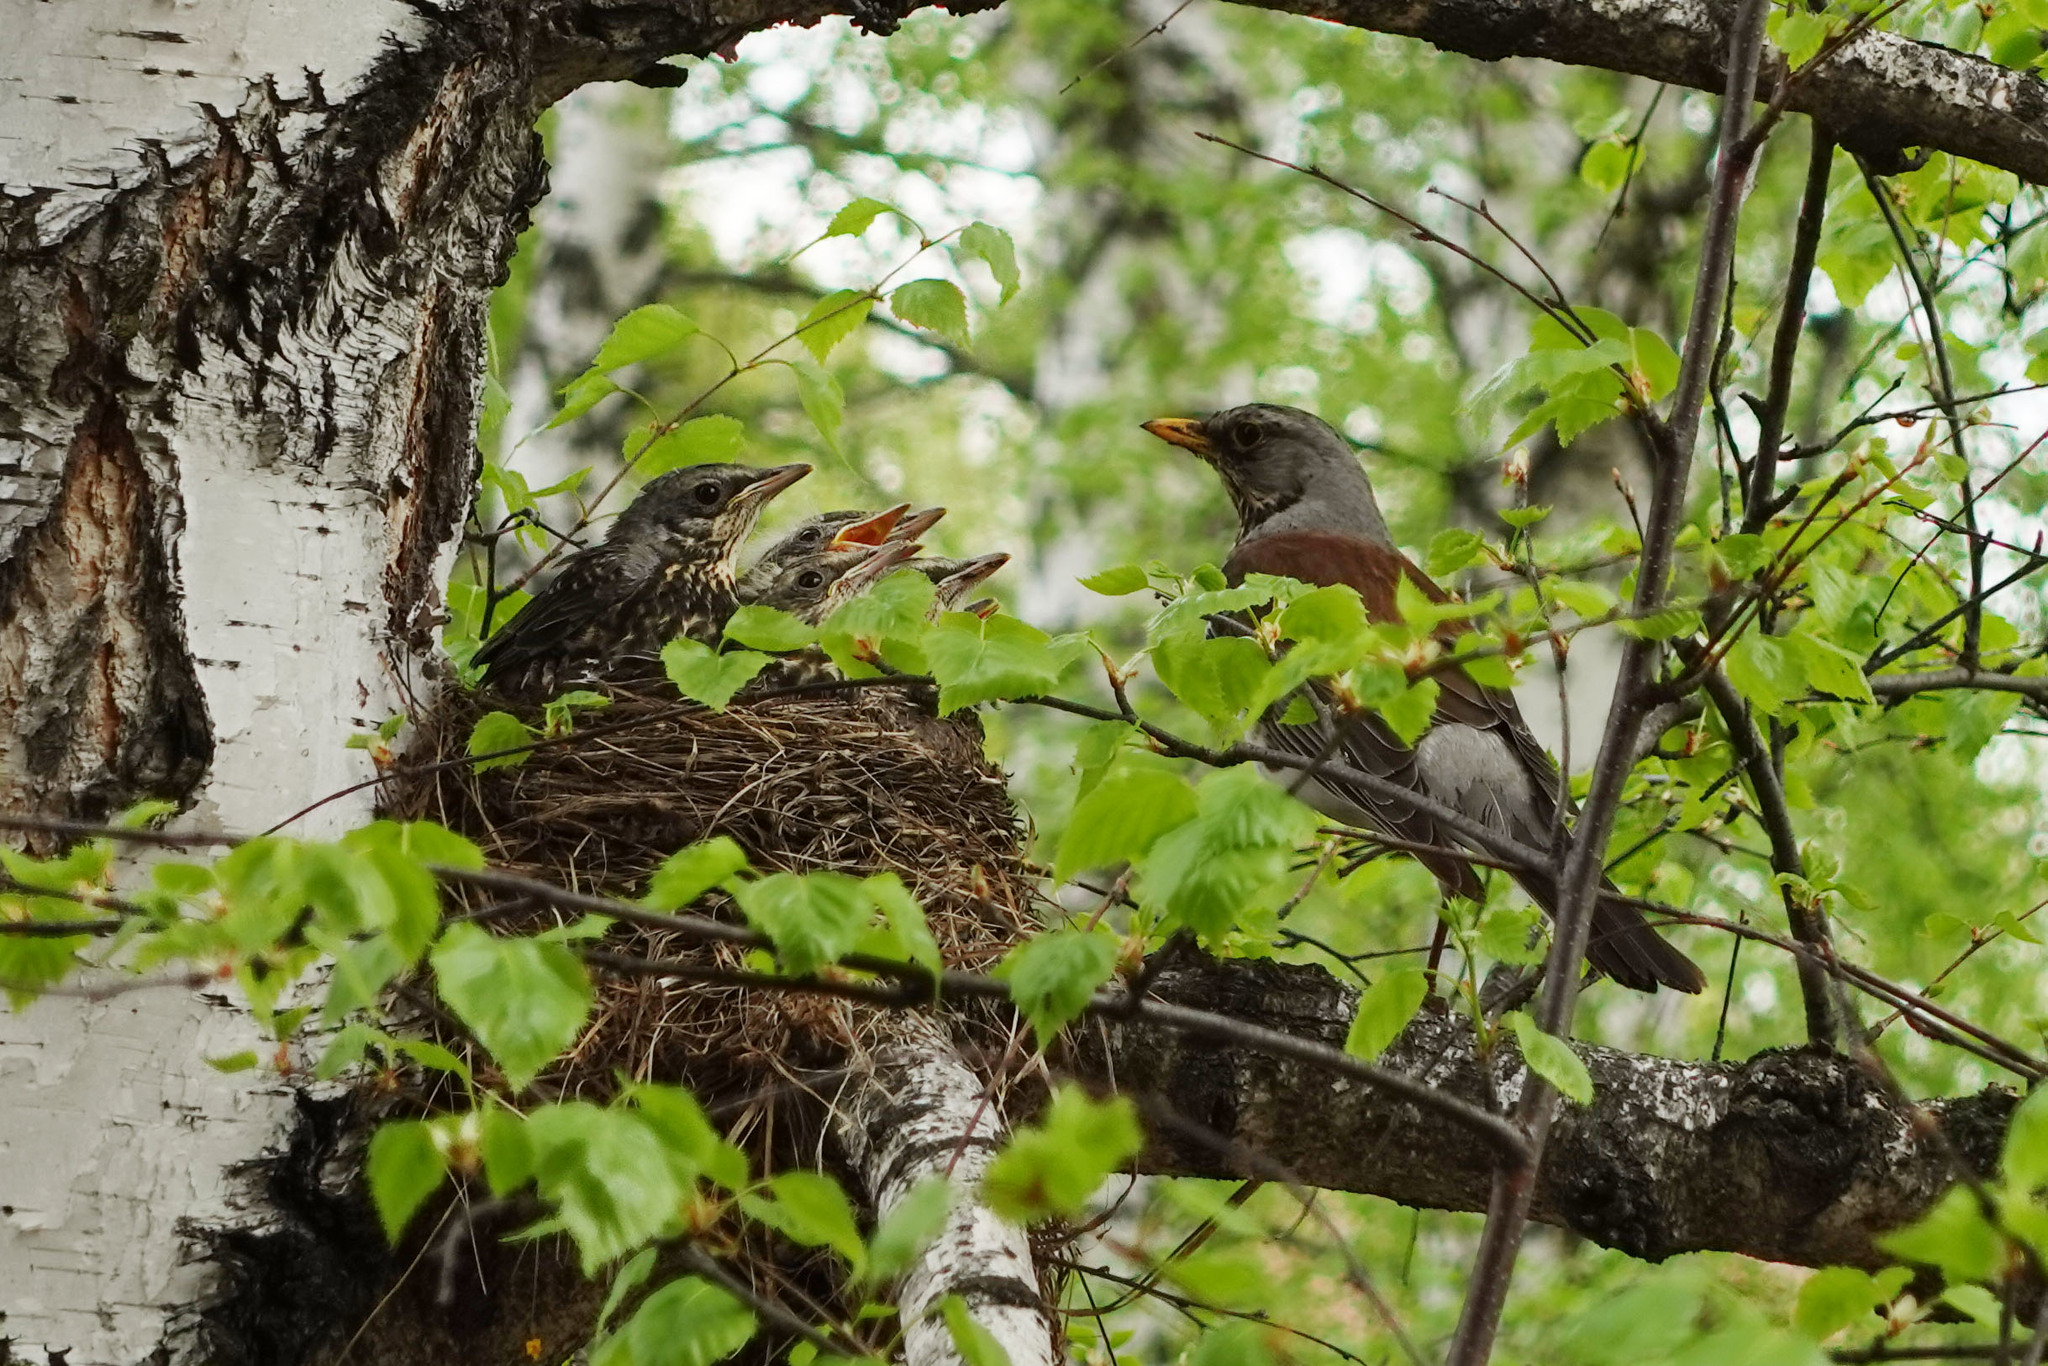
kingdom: Animalia
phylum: Chordata
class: Aves
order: Passeriformes
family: Turdidae
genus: Turdus
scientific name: Turdus pilaris
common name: Fieldfare
